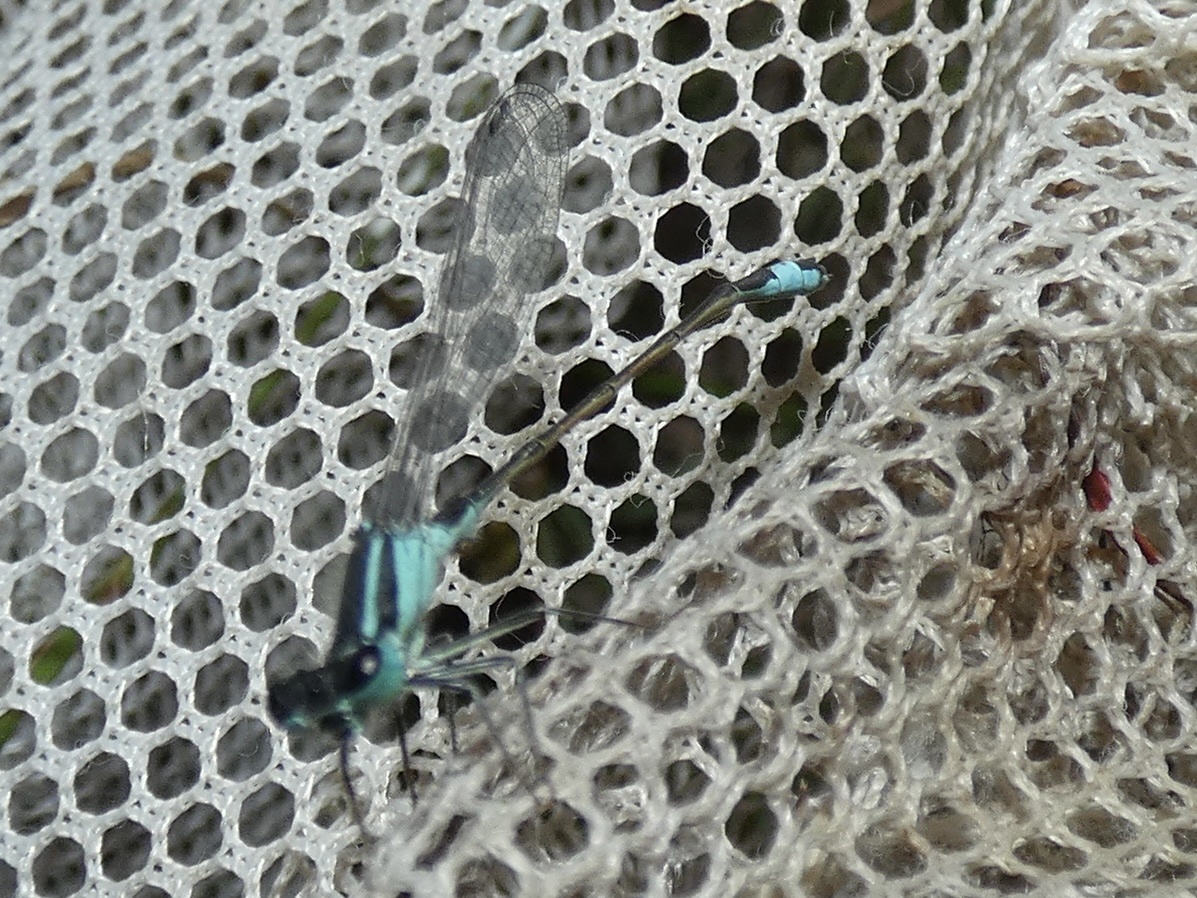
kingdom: Animalia
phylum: Arthropoda
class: Insecta
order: Odonata
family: Coenagrionidae
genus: Ischnura
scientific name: Ischnura elegans
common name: Blue-tailed damselfly
